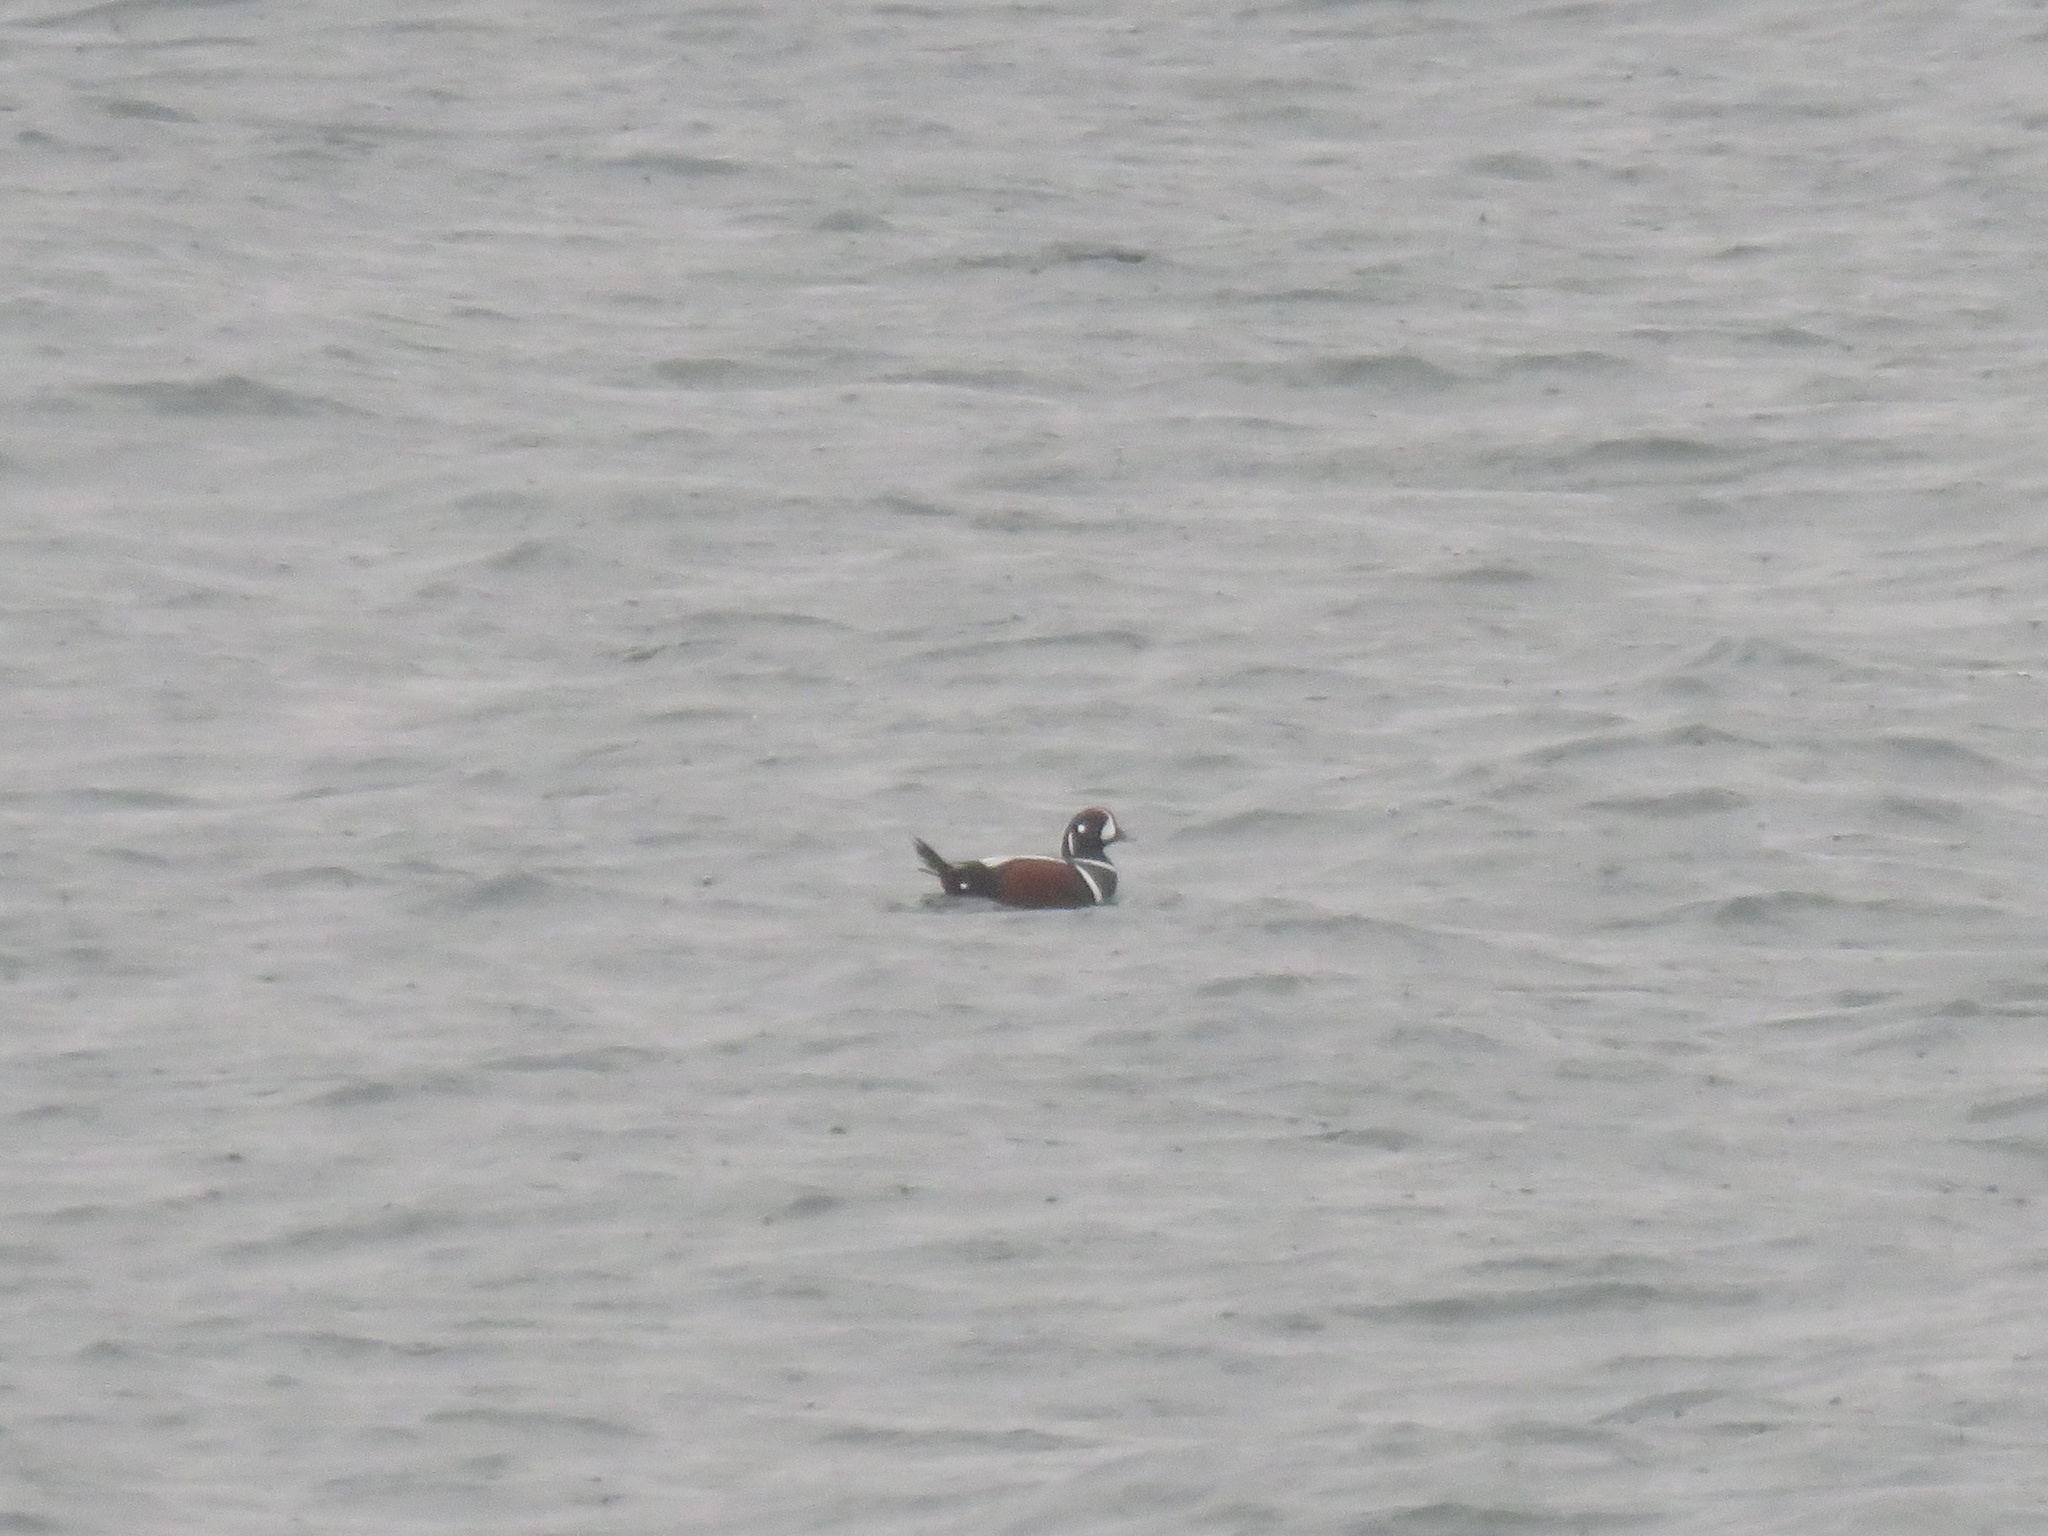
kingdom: Animalia
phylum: Chordata
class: Aves
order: Anseriformes
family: Anatidae
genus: Histrionicus
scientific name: Histrionicus histrionicus
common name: Harlequin duck
